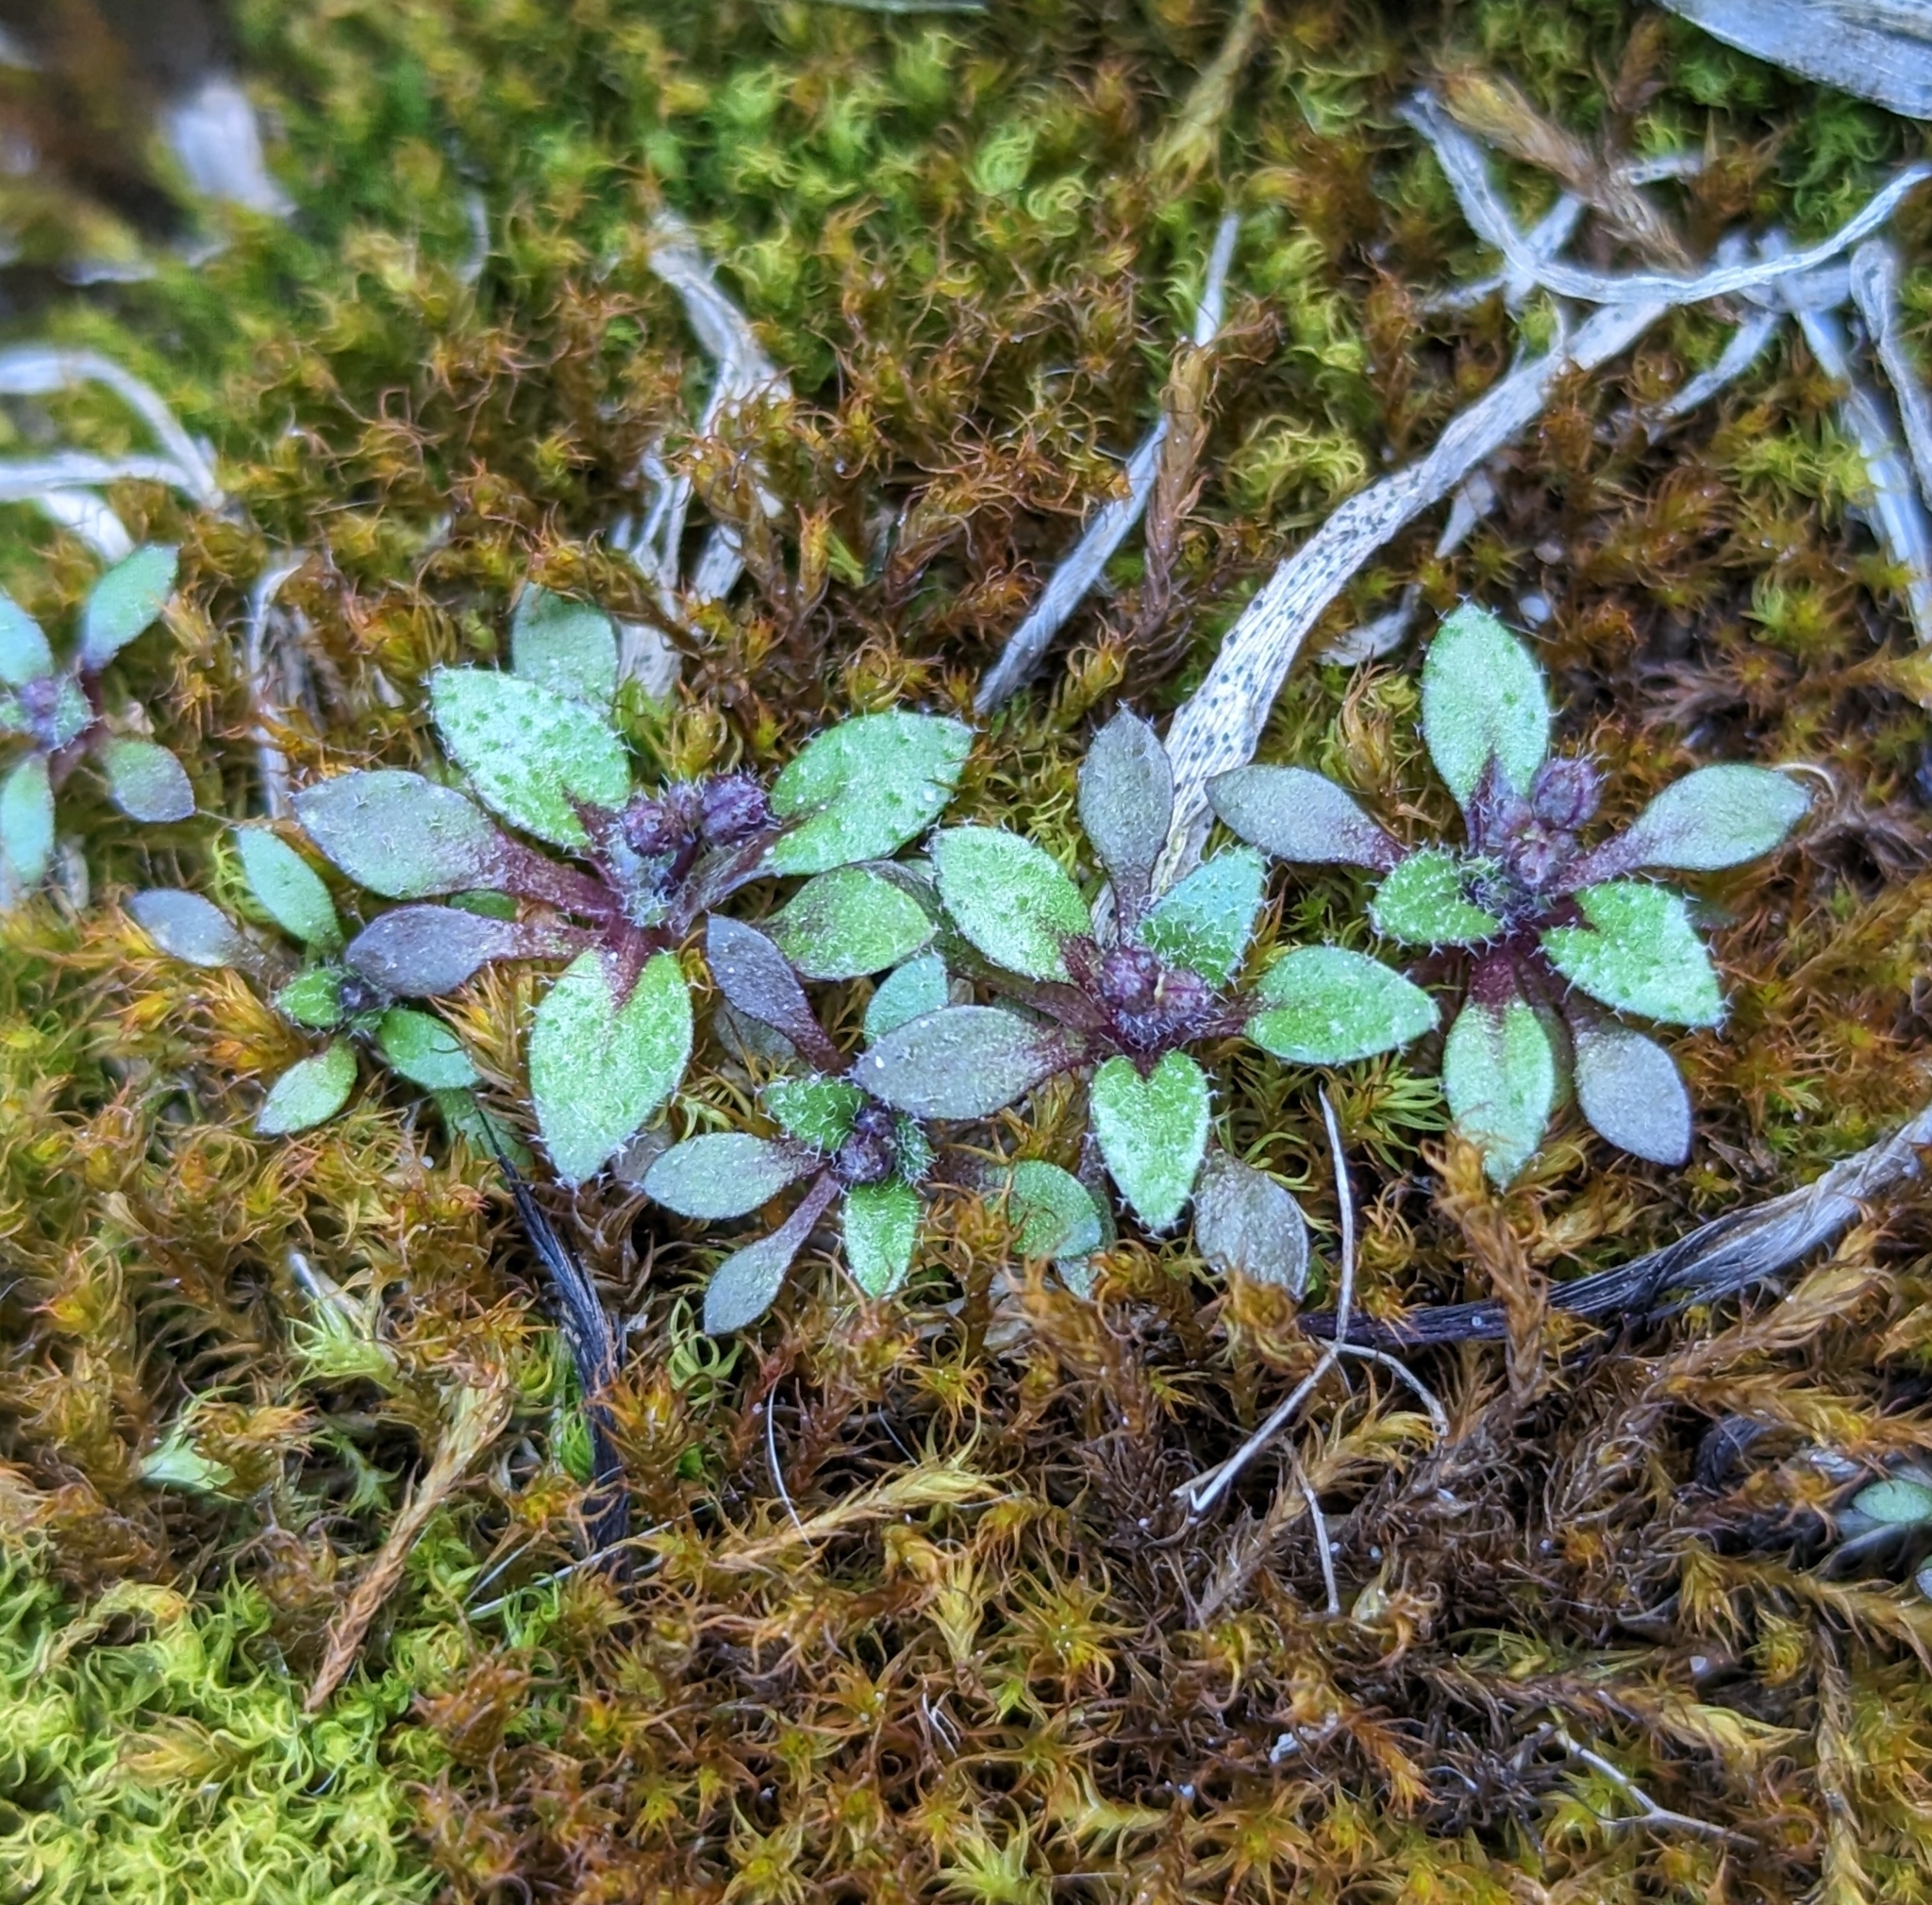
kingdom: Plantae
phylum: Tracheophyta
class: Magnoliopsida
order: Brassicales
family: Brassicaceae
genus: Draba
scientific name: Draba verna
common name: Spring draba
